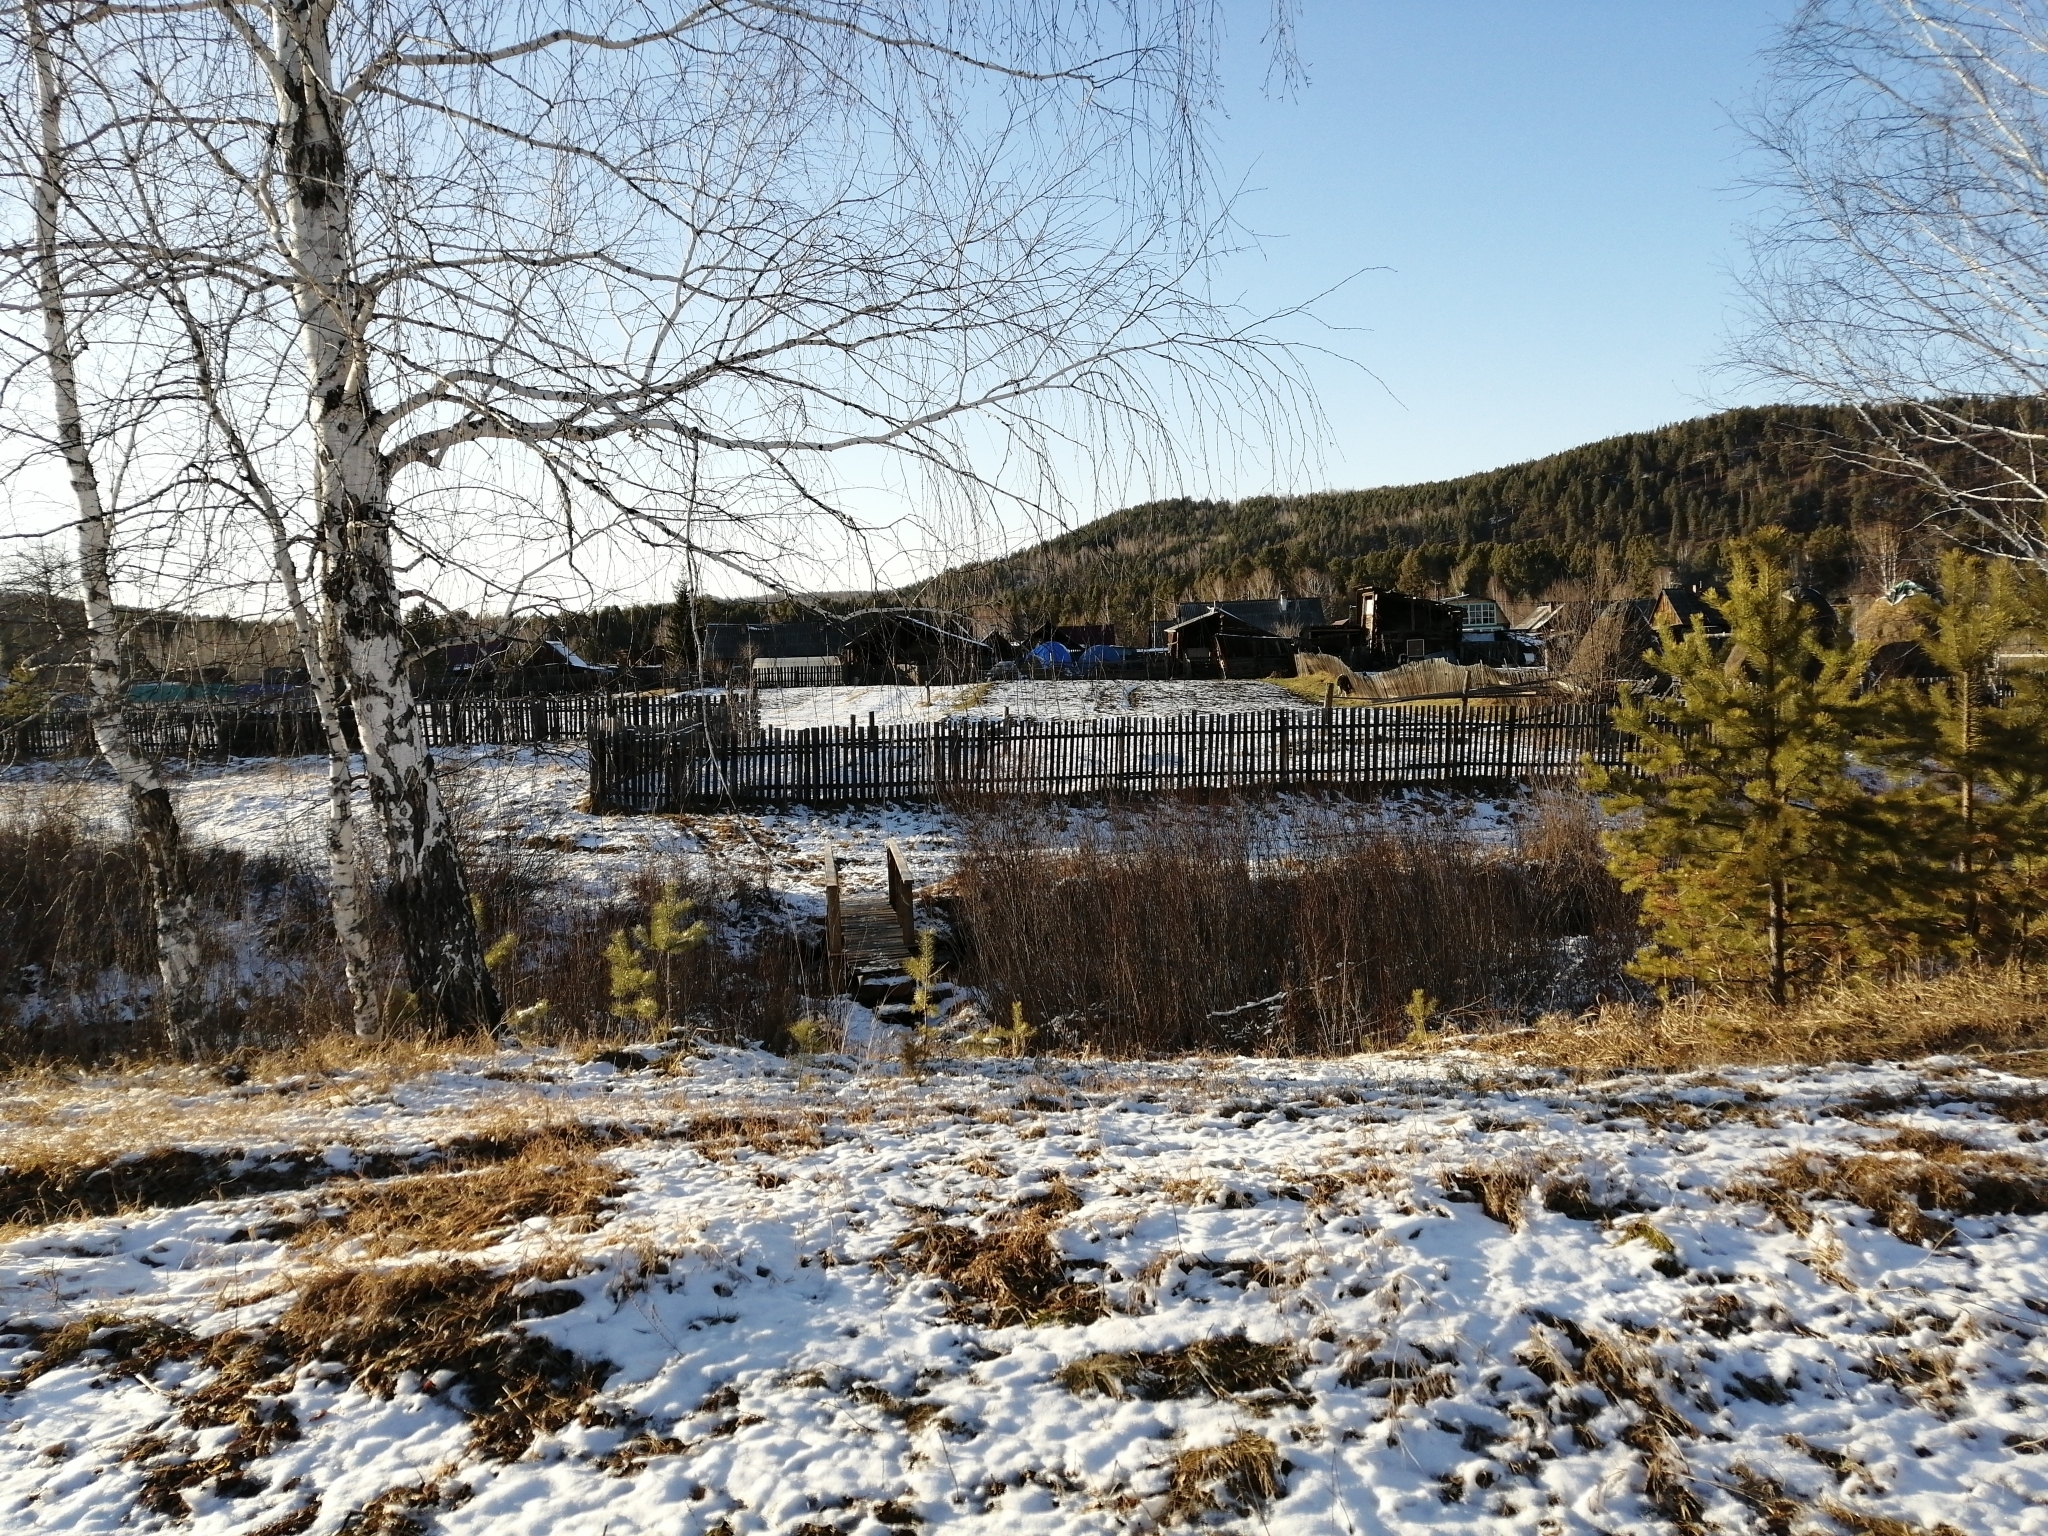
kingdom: Plantae
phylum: Tracheophyta
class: Liliopsida
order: Poales
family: Poaceae
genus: Phragmites
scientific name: Phragmites australis
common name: Common reed
